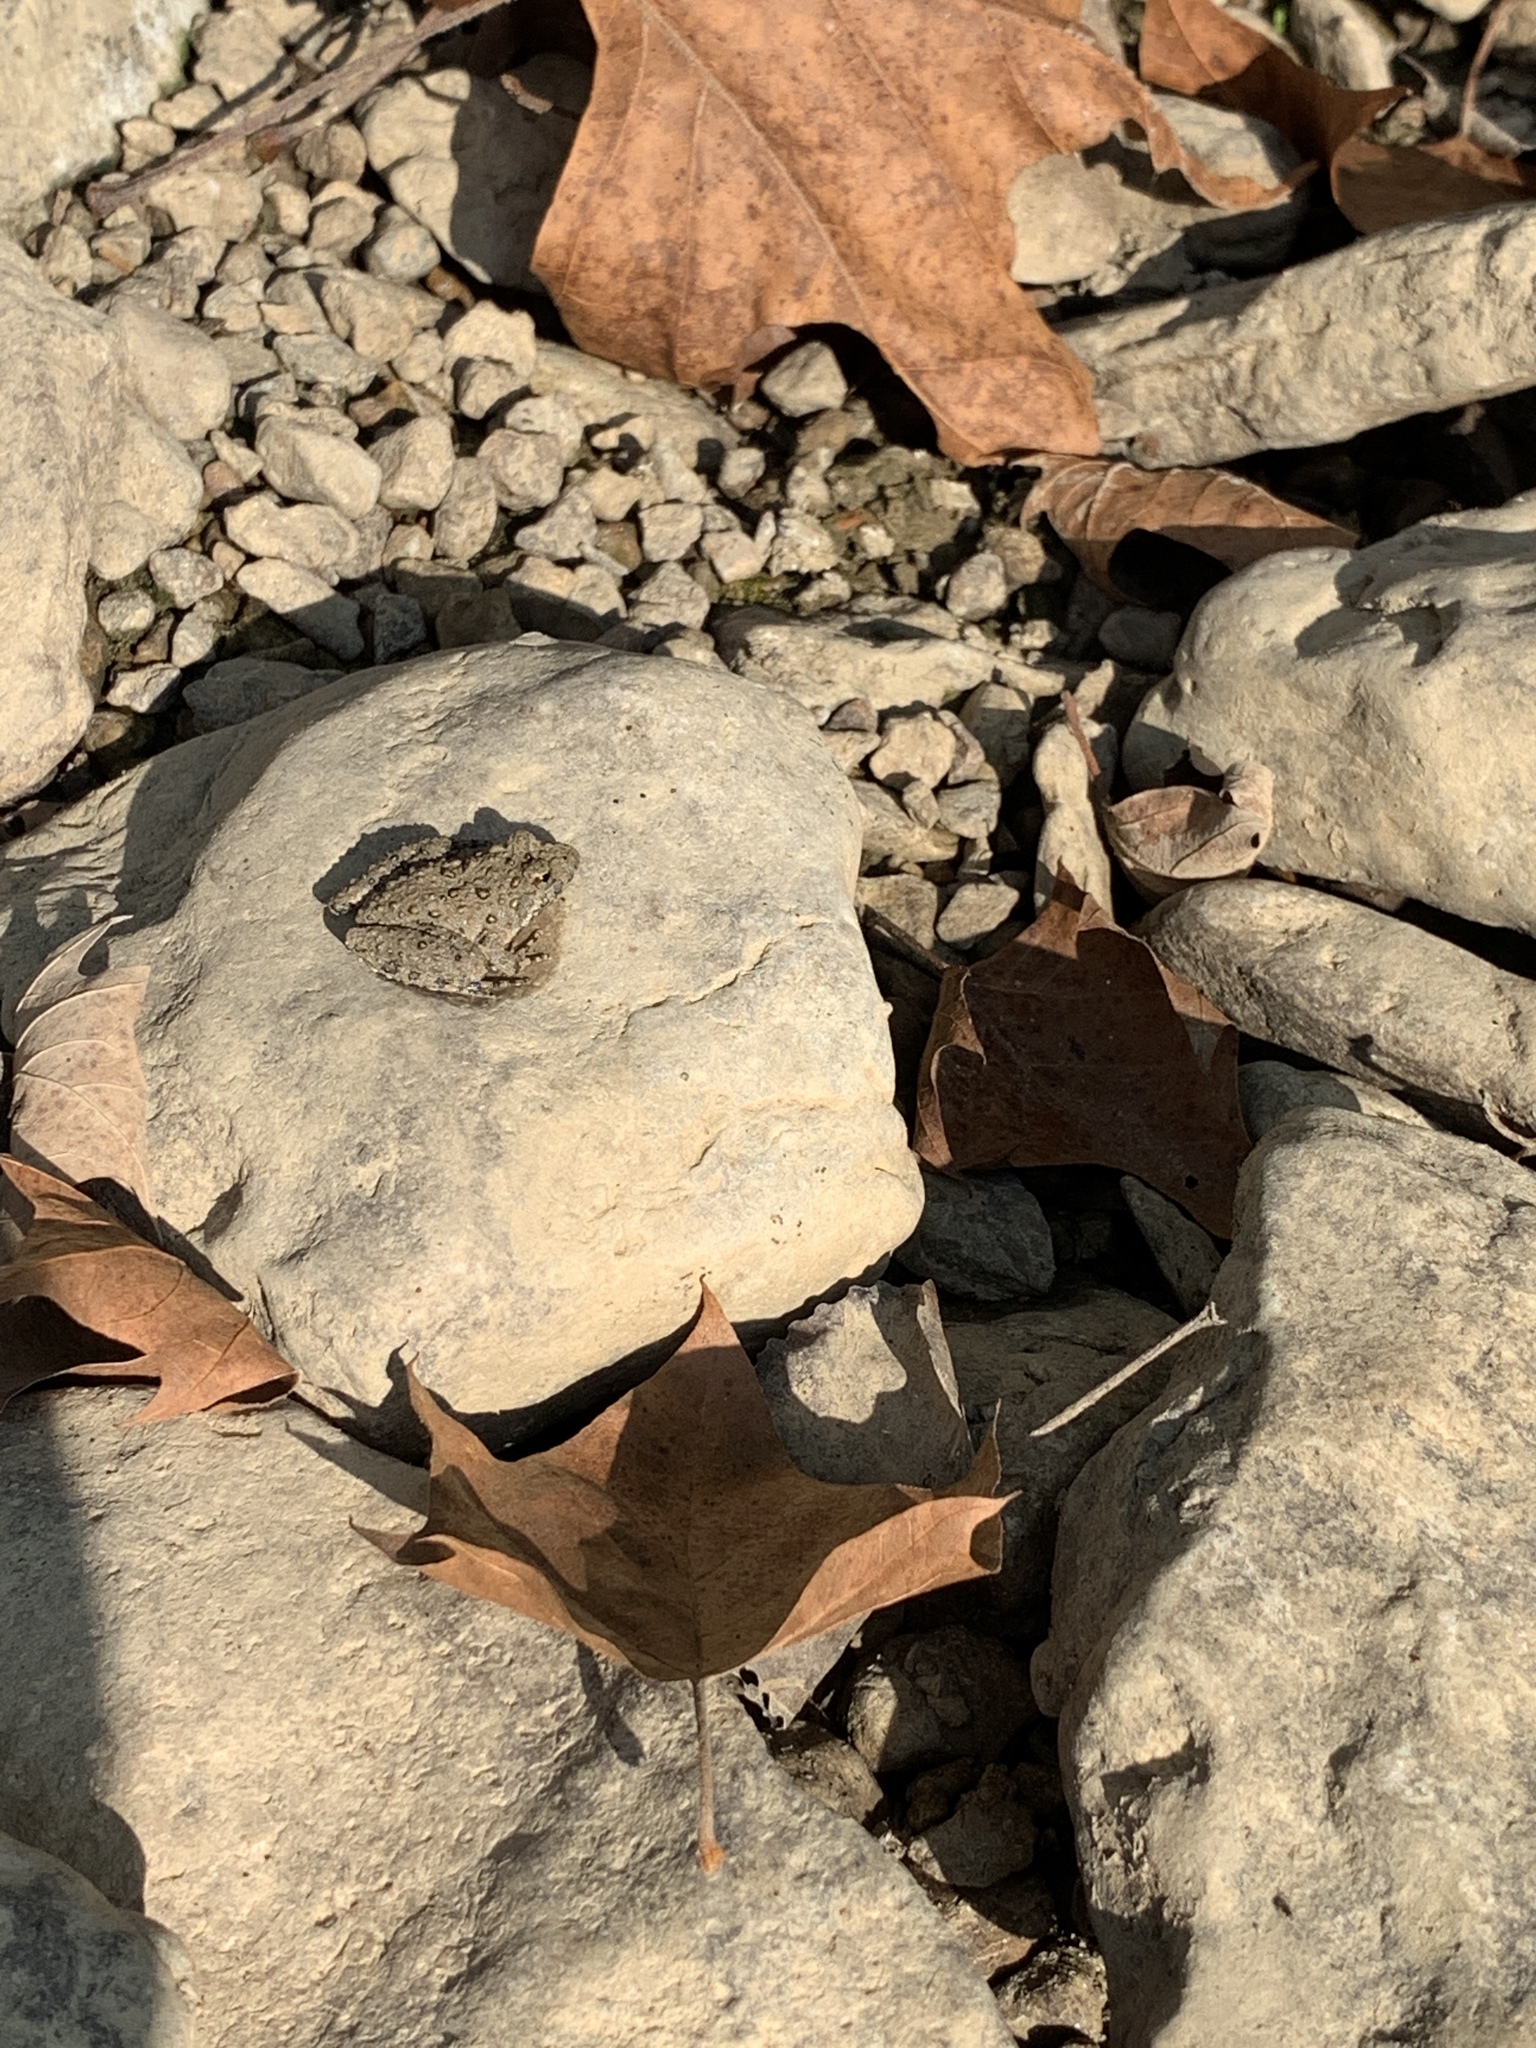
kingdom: Animalia
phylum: Chordata
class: Amphibia
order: Anura
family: Hylidae
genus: Acris
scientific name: Acris blanchardi
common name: Blanchard's cricket frog
